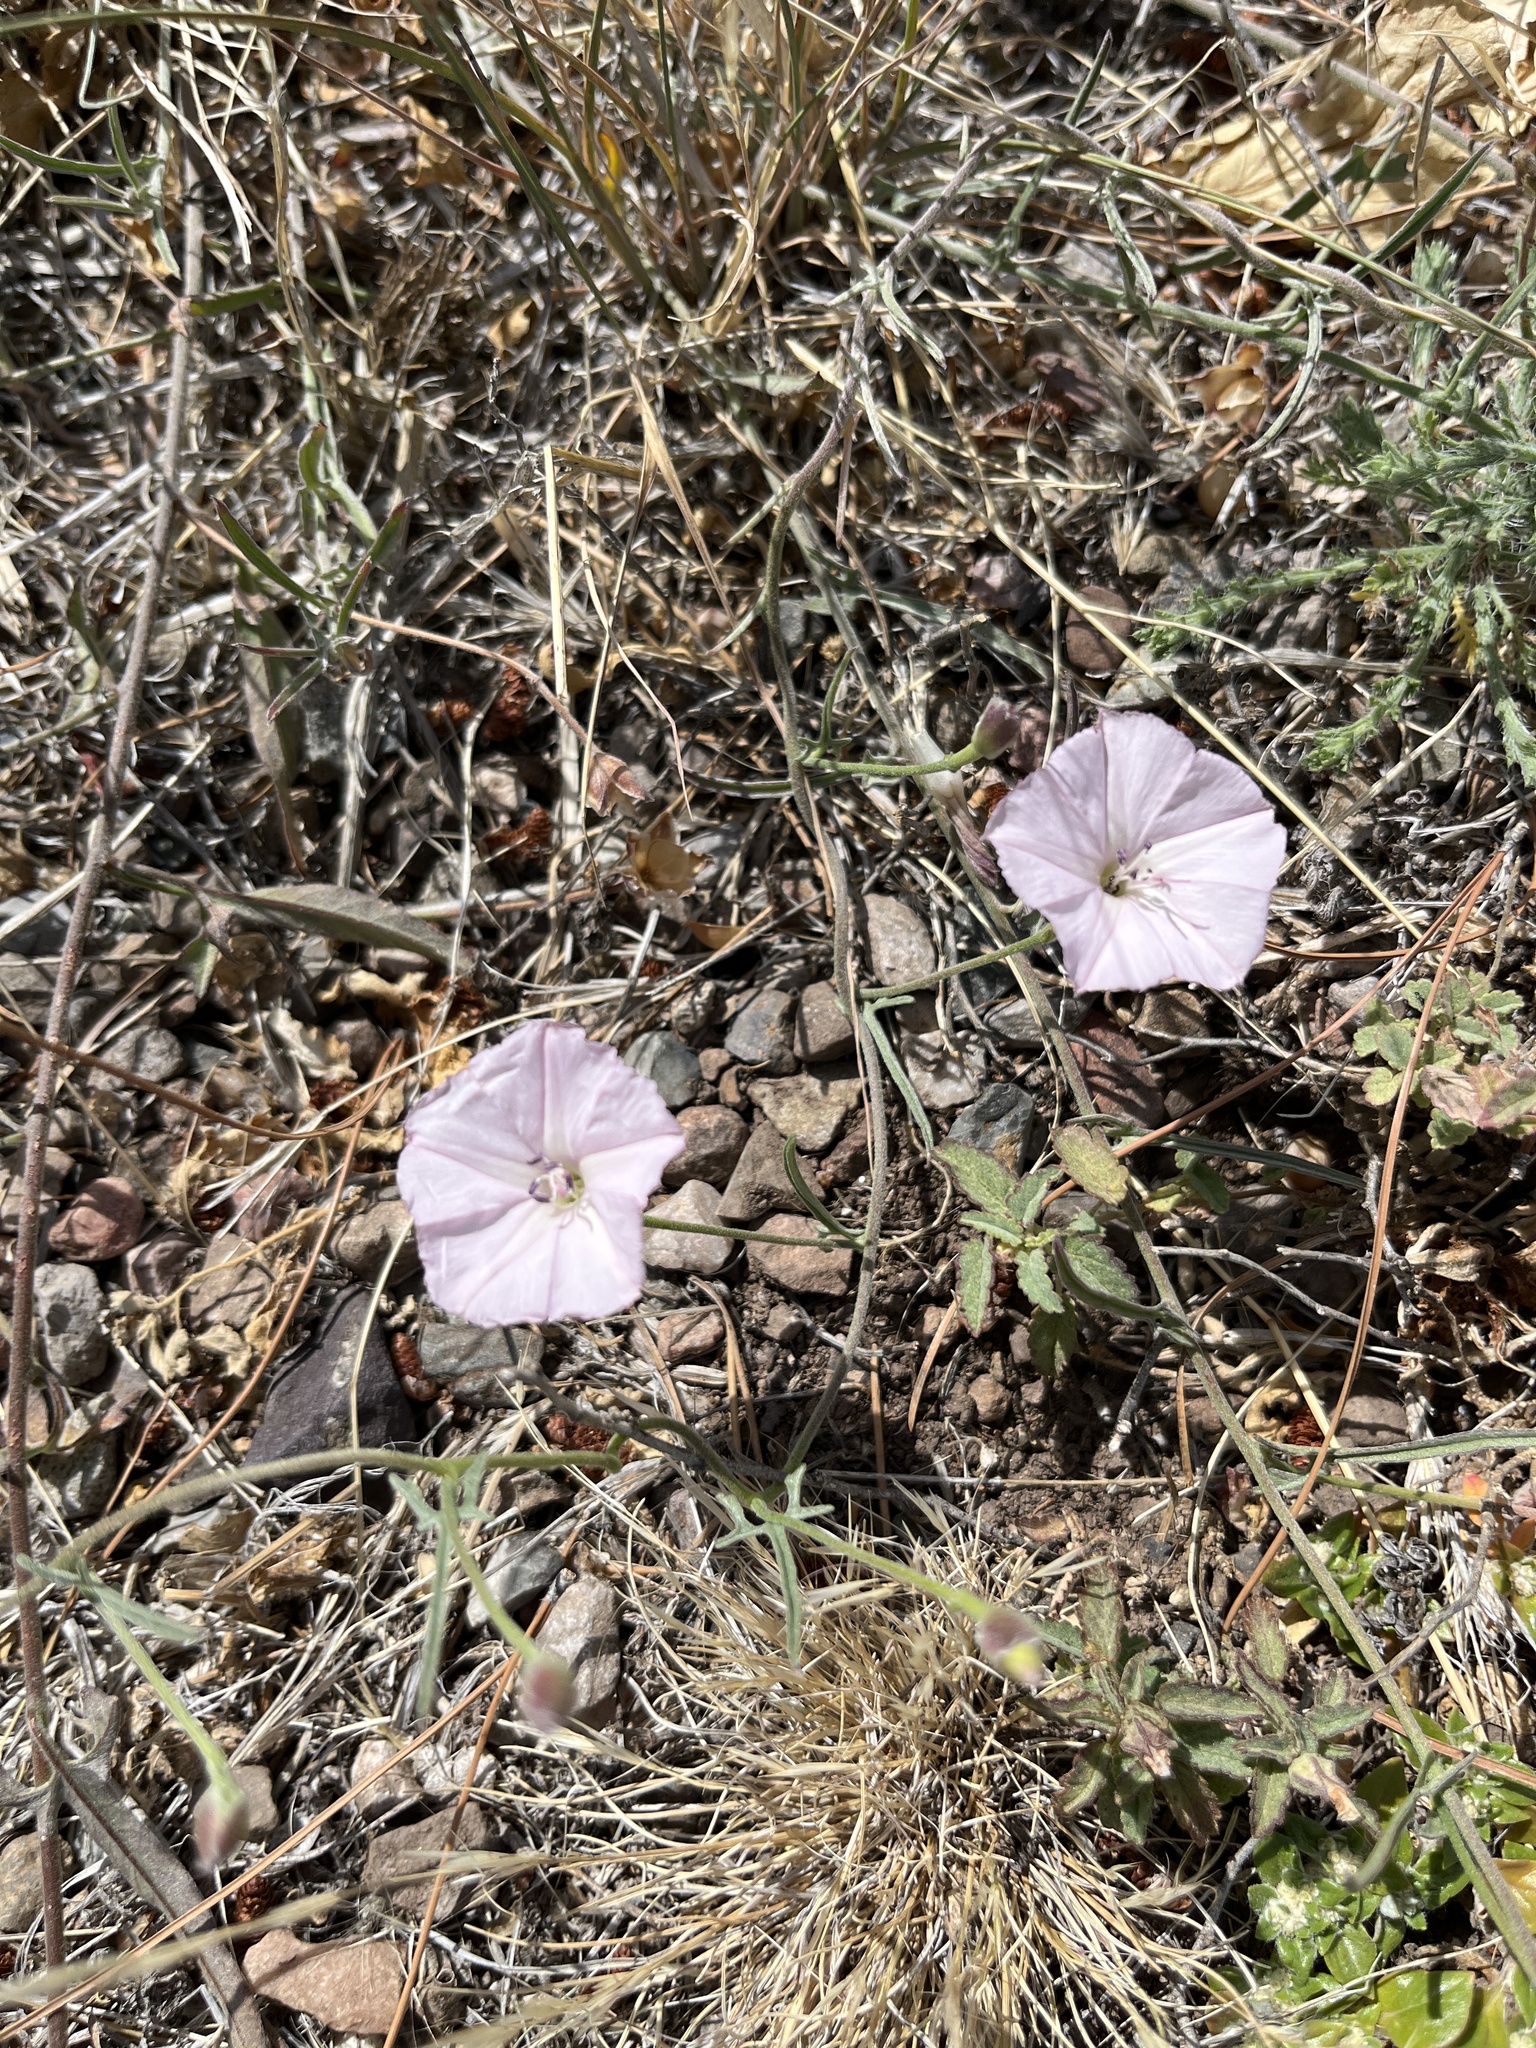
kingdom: Plantae
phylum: Tracheophyta
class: Magnoliopsida
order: Solanales
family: Convolvulaceae
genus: Convolvulus
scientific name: Convolvulus arvensis
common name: Field bindweed
